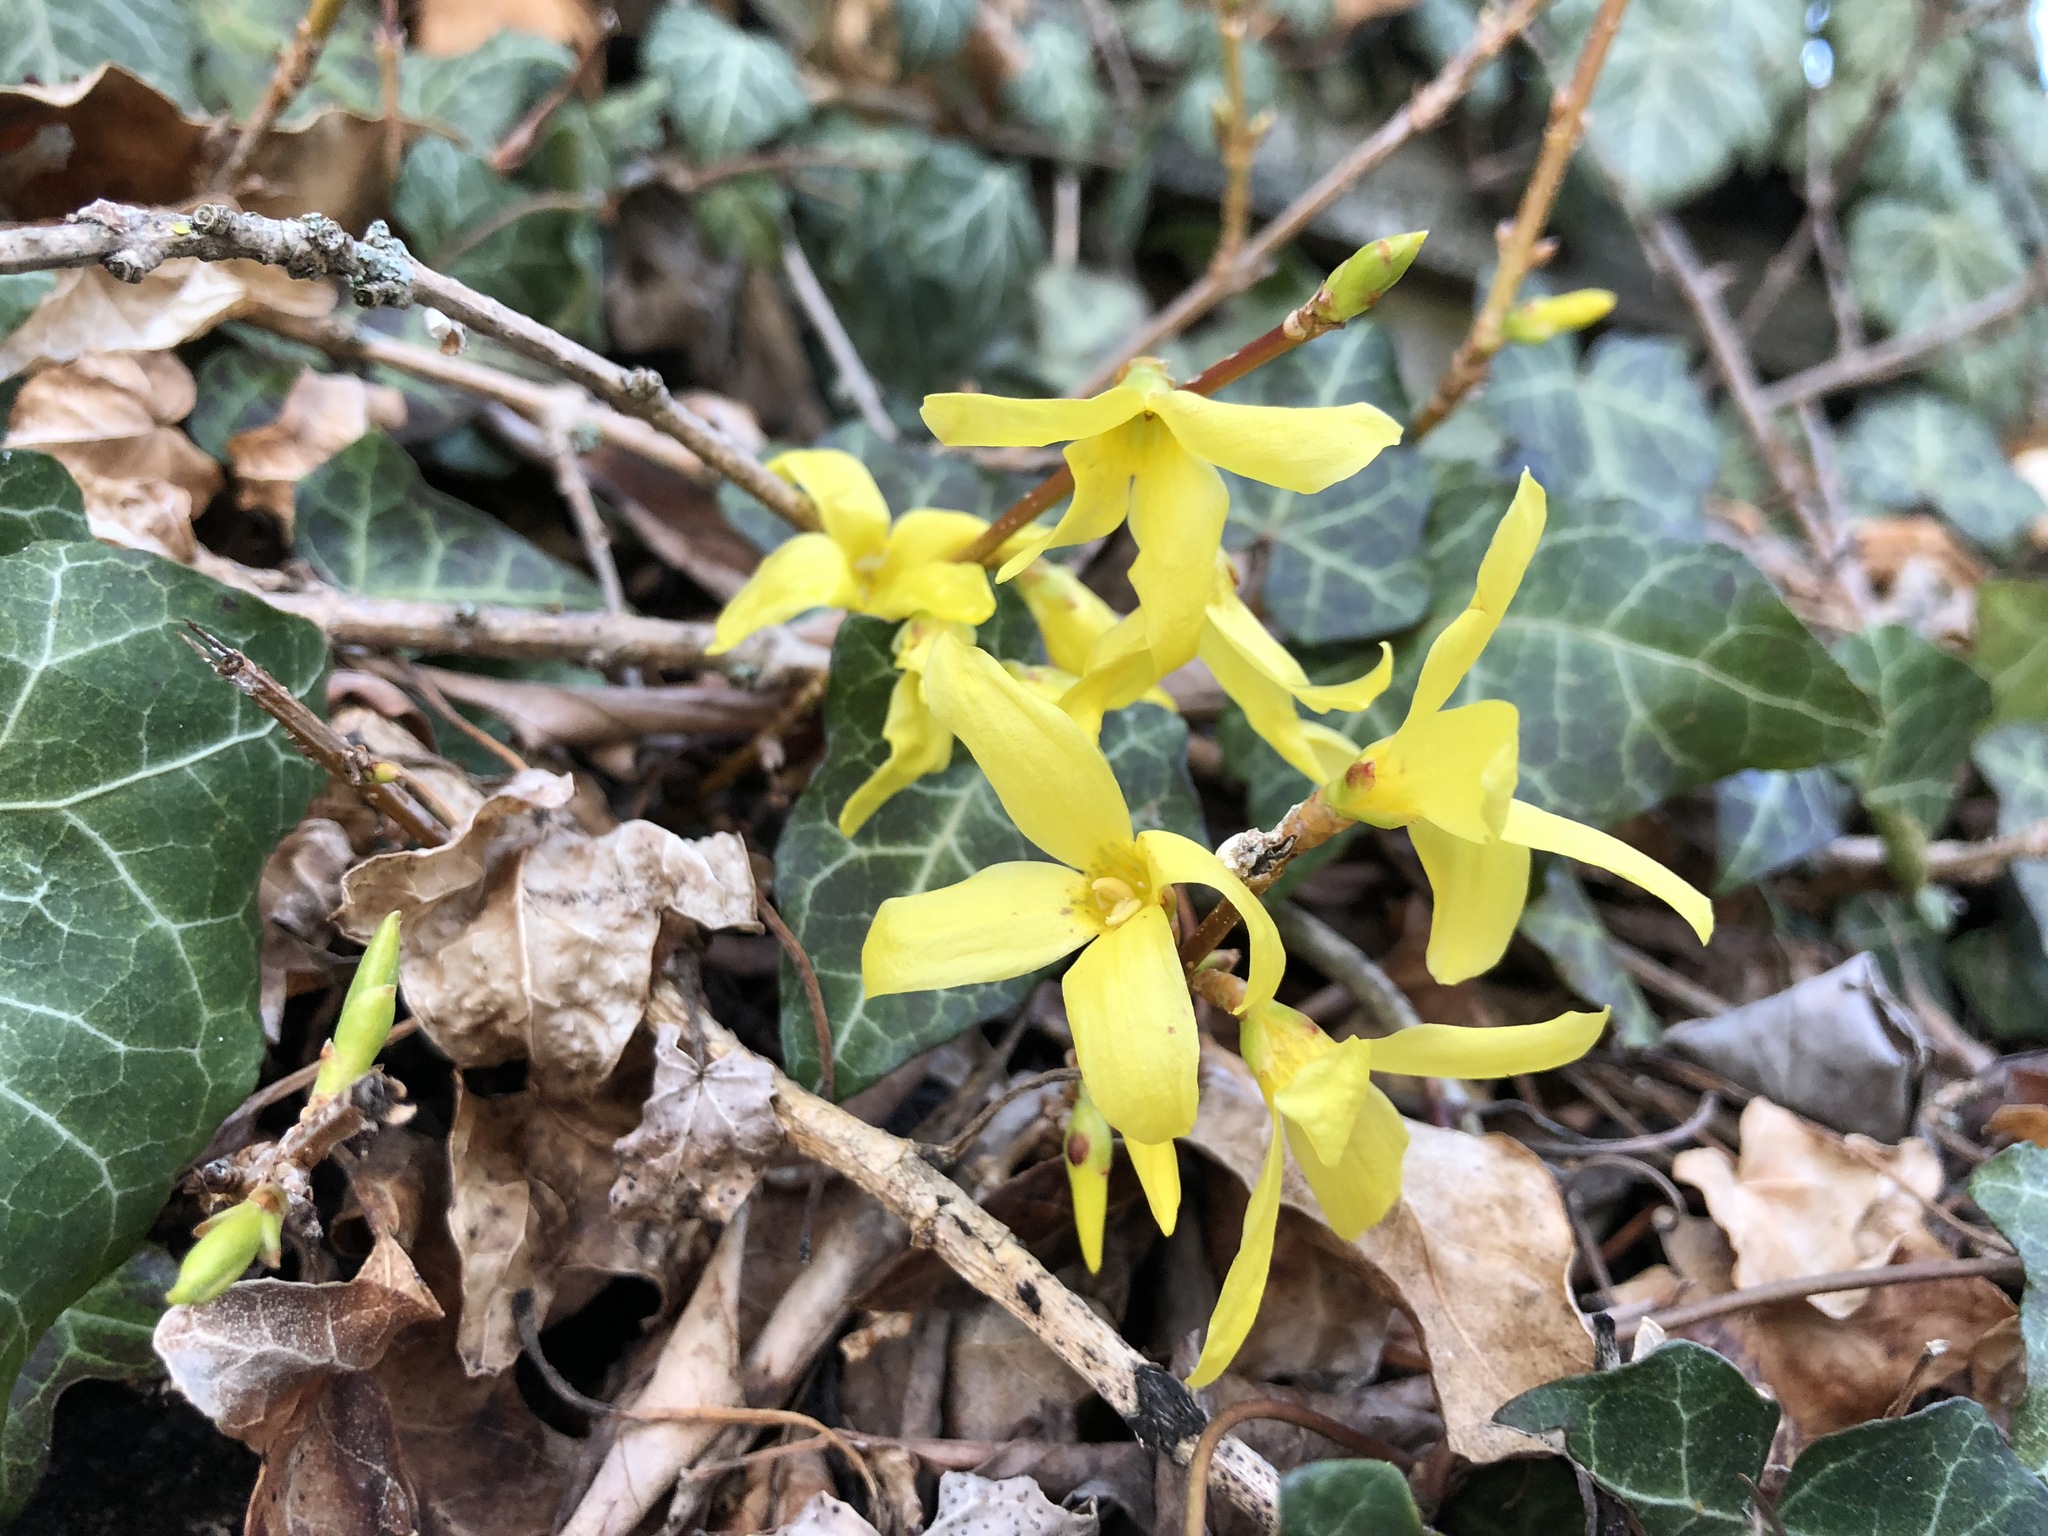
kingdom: Plantae
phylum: Tracheophyta
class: Magnoliopsida
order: Lamiales
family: Oleaceae
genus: Forsythia
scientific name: Forsythia intermedia
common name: Forsythia
